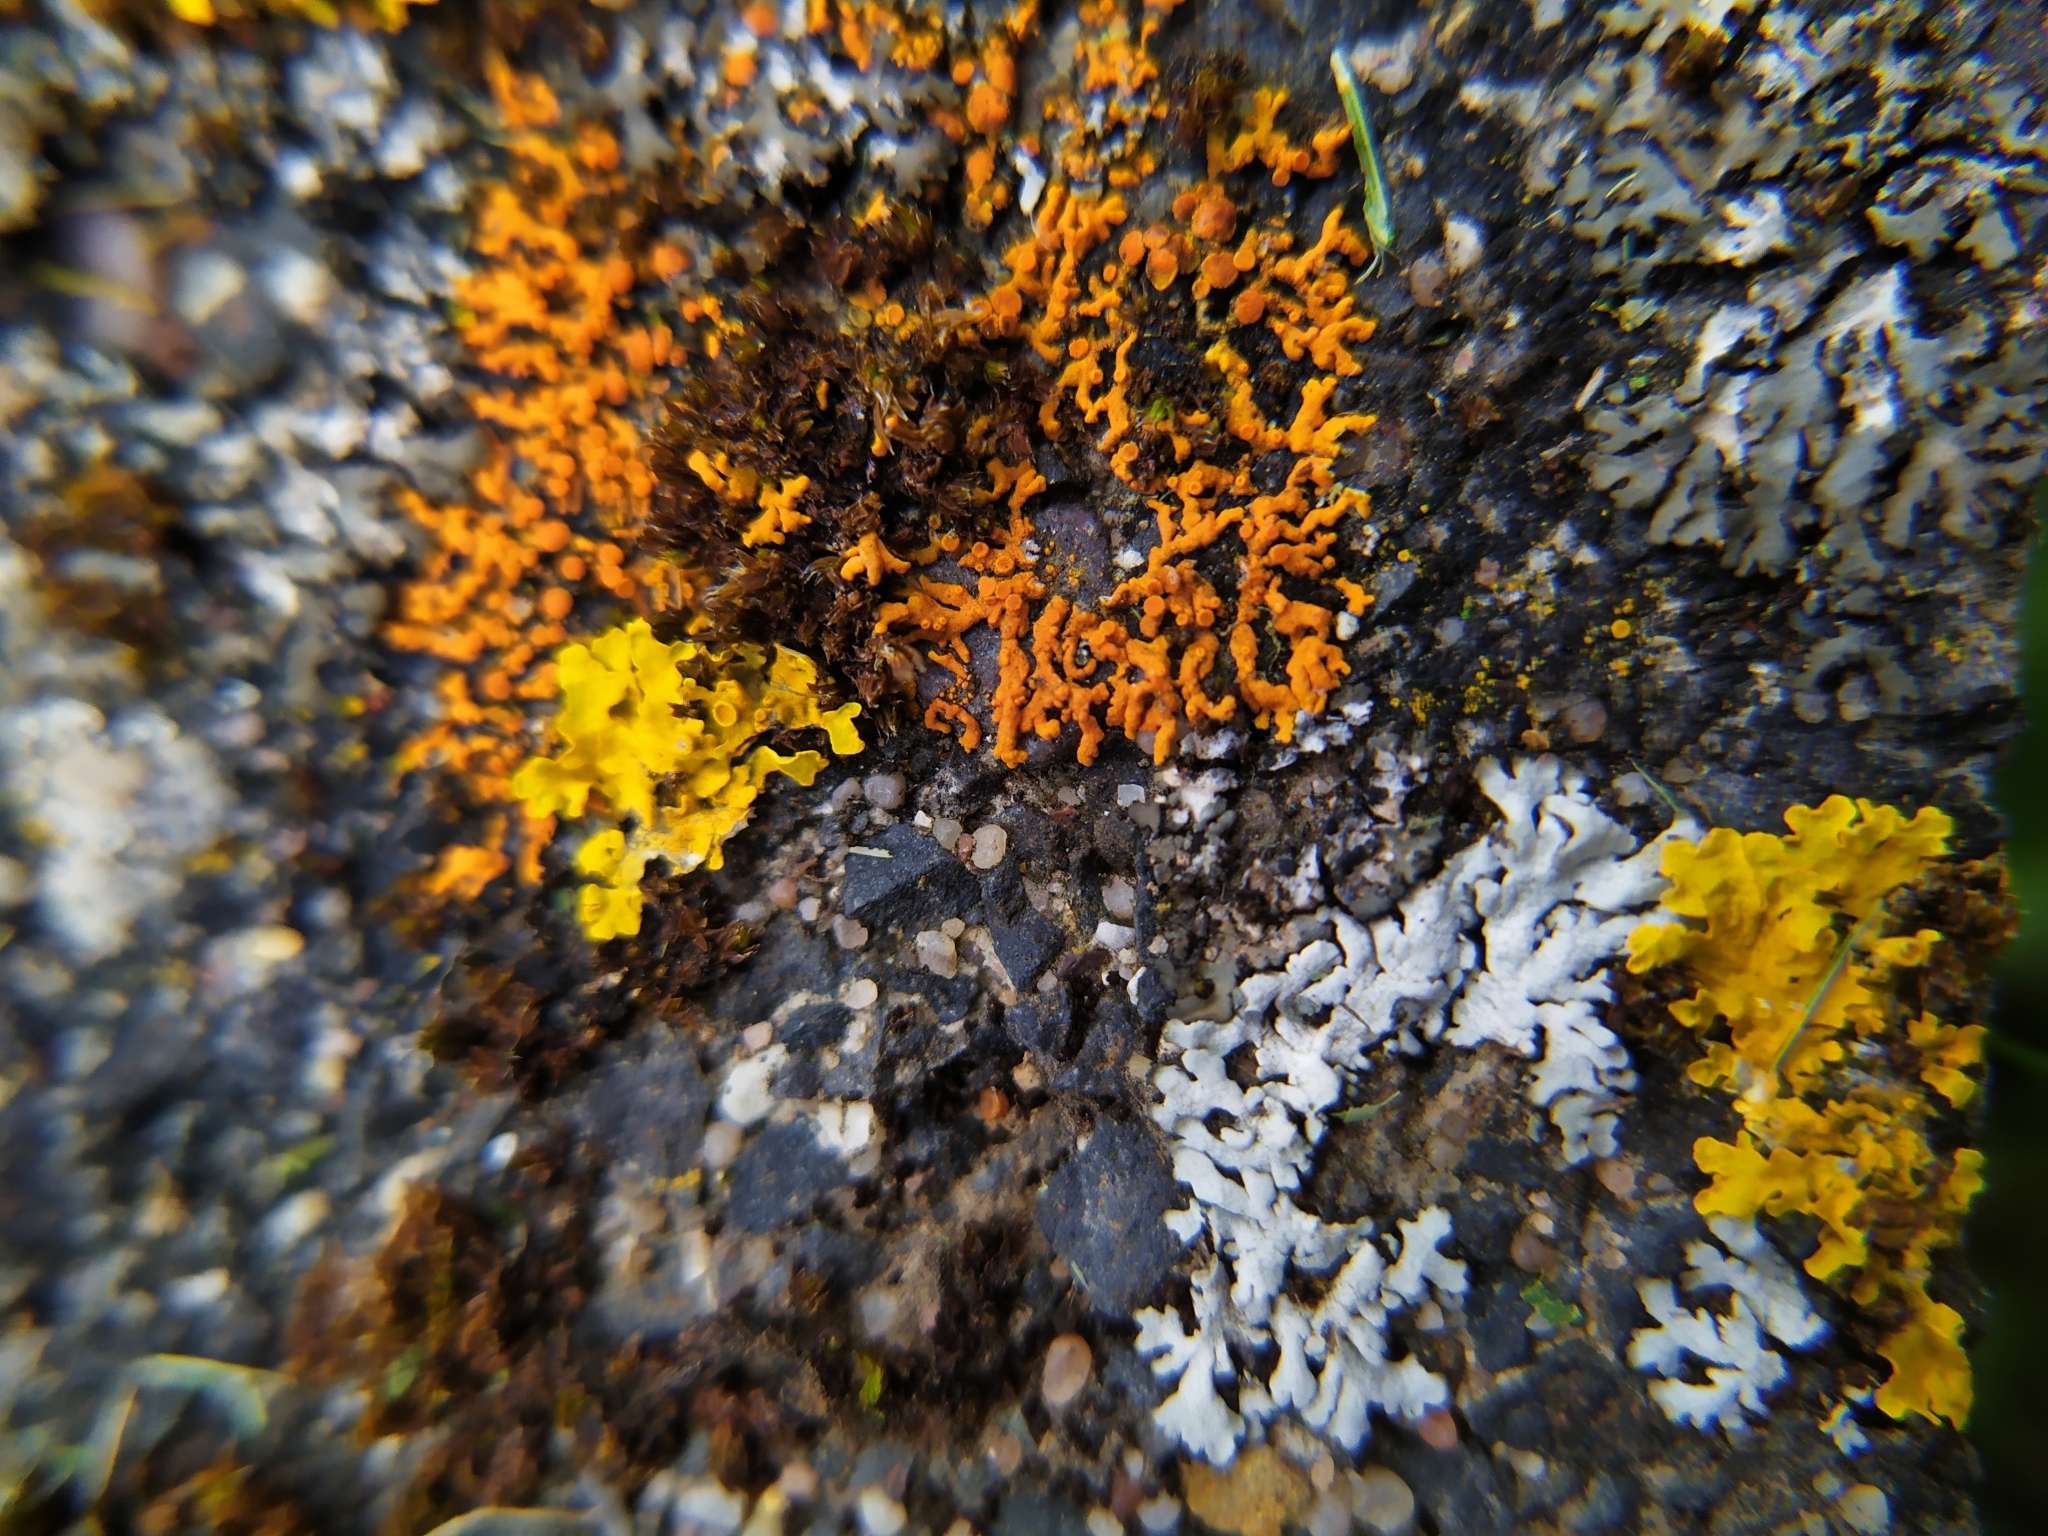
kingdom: Fungi
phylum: Ascomycota
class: Lecanoromycetes
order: Teloschistales
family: Teloschistaceae
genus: Xanthoria
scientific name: Xanthoria elegans
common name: Elegant sunburst lichen
